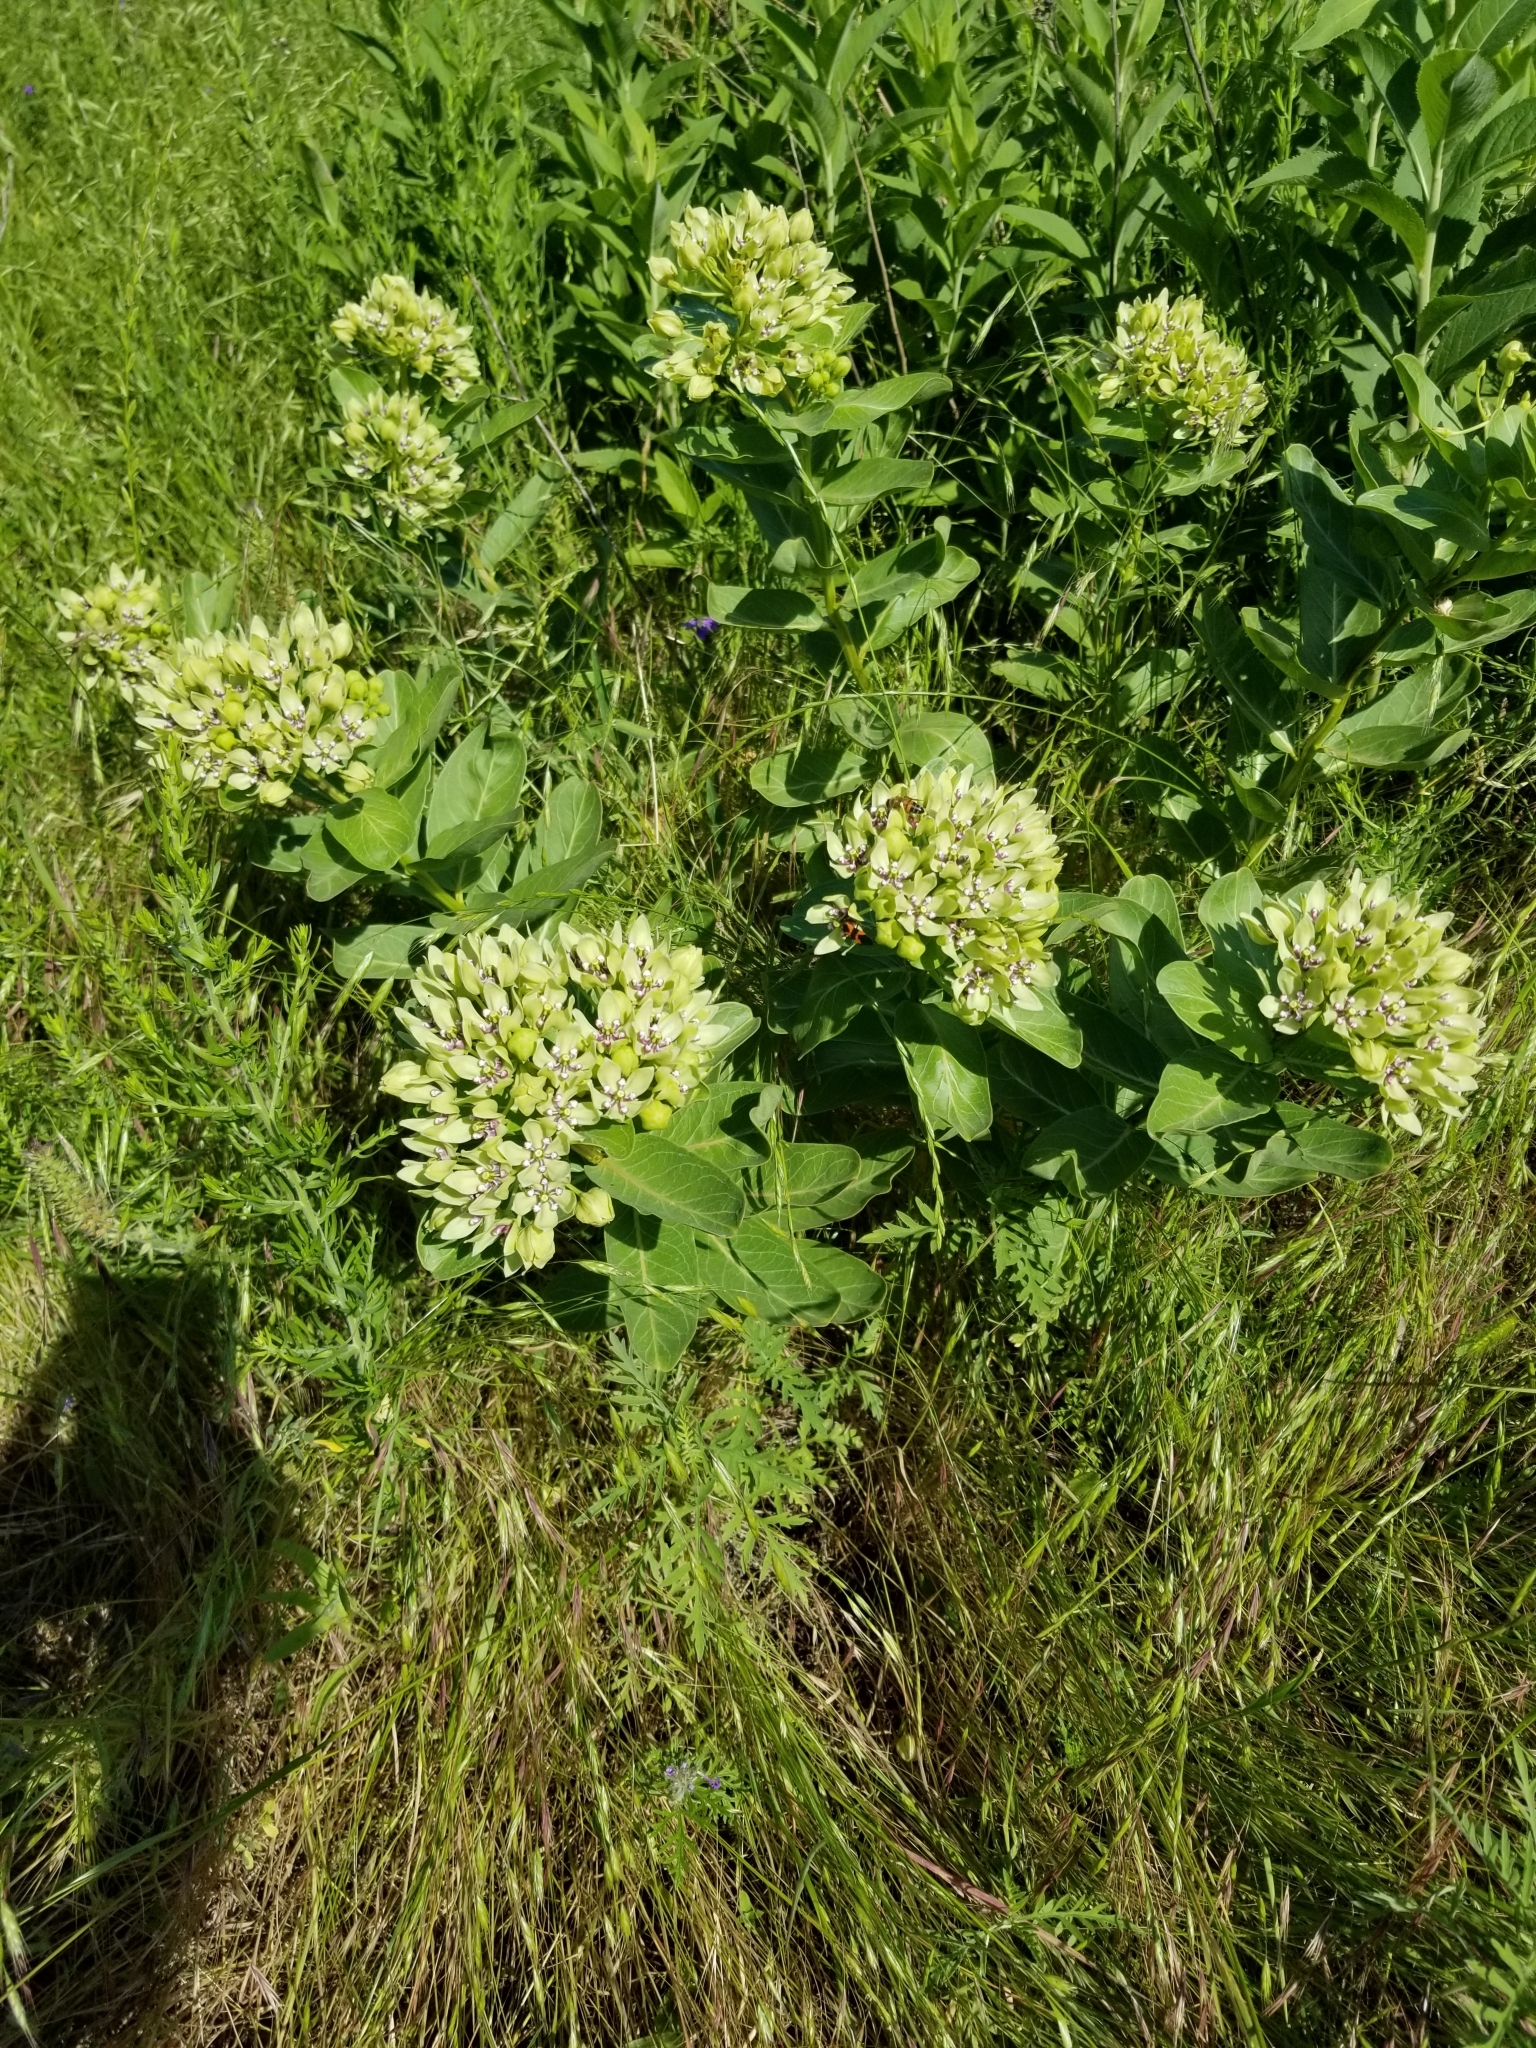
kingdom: Plantae
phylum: Tracheophyta
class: Magnoliopsida
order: Gentianales
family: Apocynaceae
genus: Asclepias
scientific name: Asclepias viridis
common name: Antelope-horns
